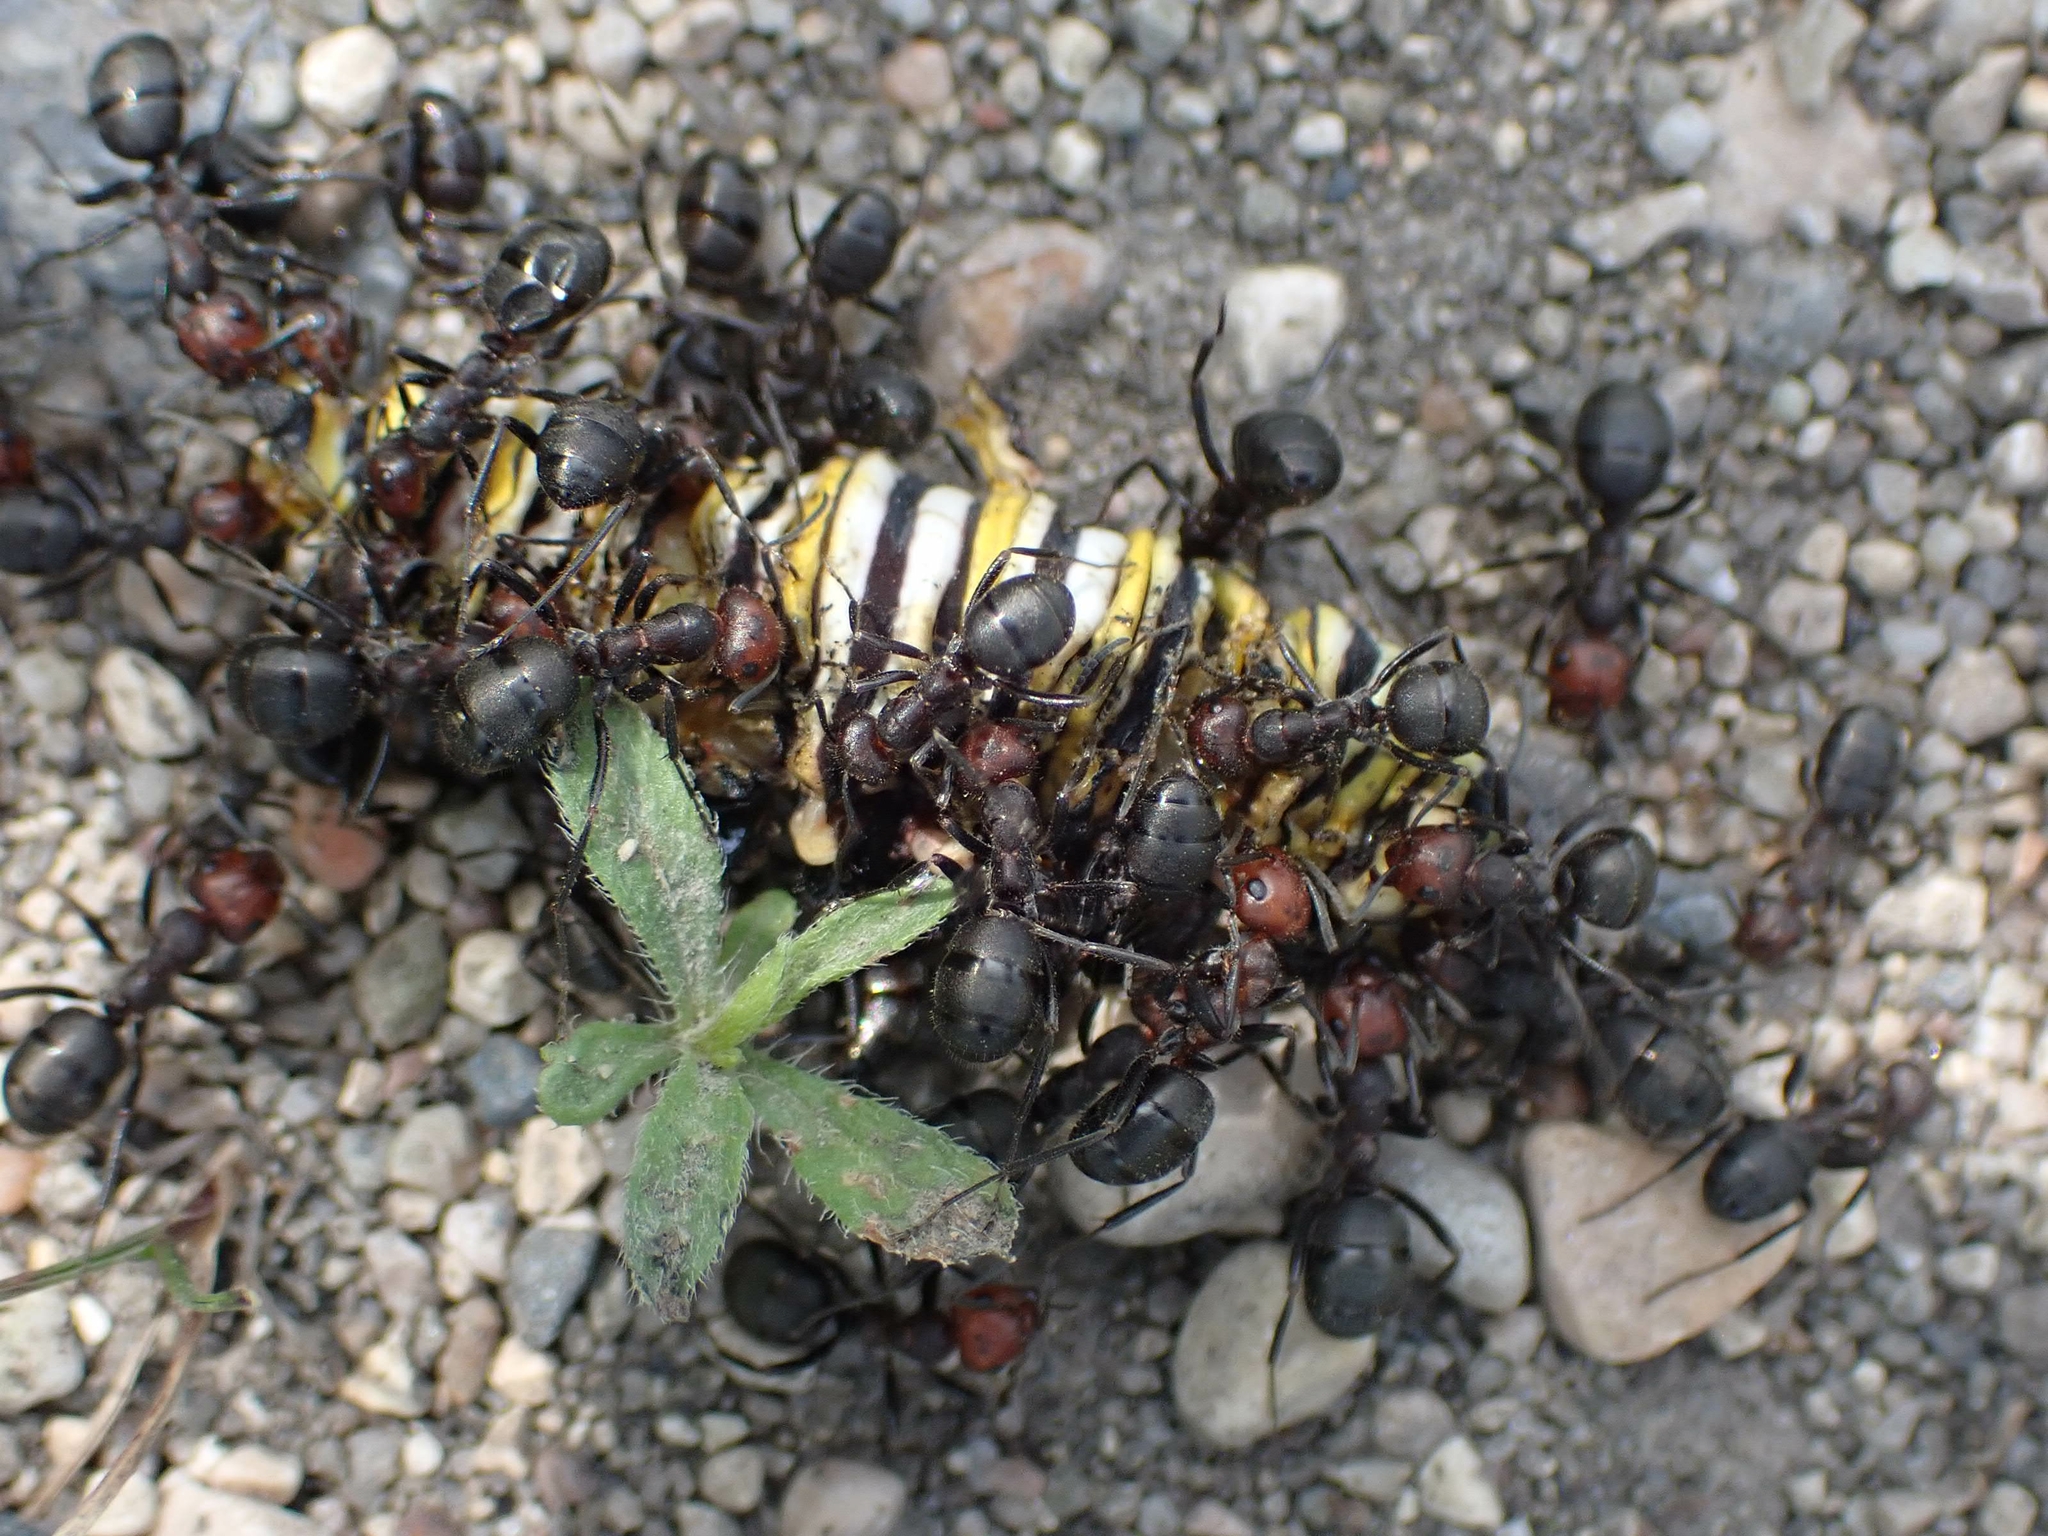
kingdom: Animalia
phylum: Arthropoda
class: Insecta
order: Lepidoptera
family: Nymphalidae
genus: Danaus
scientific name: Danaus plexippus
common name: Monarch
